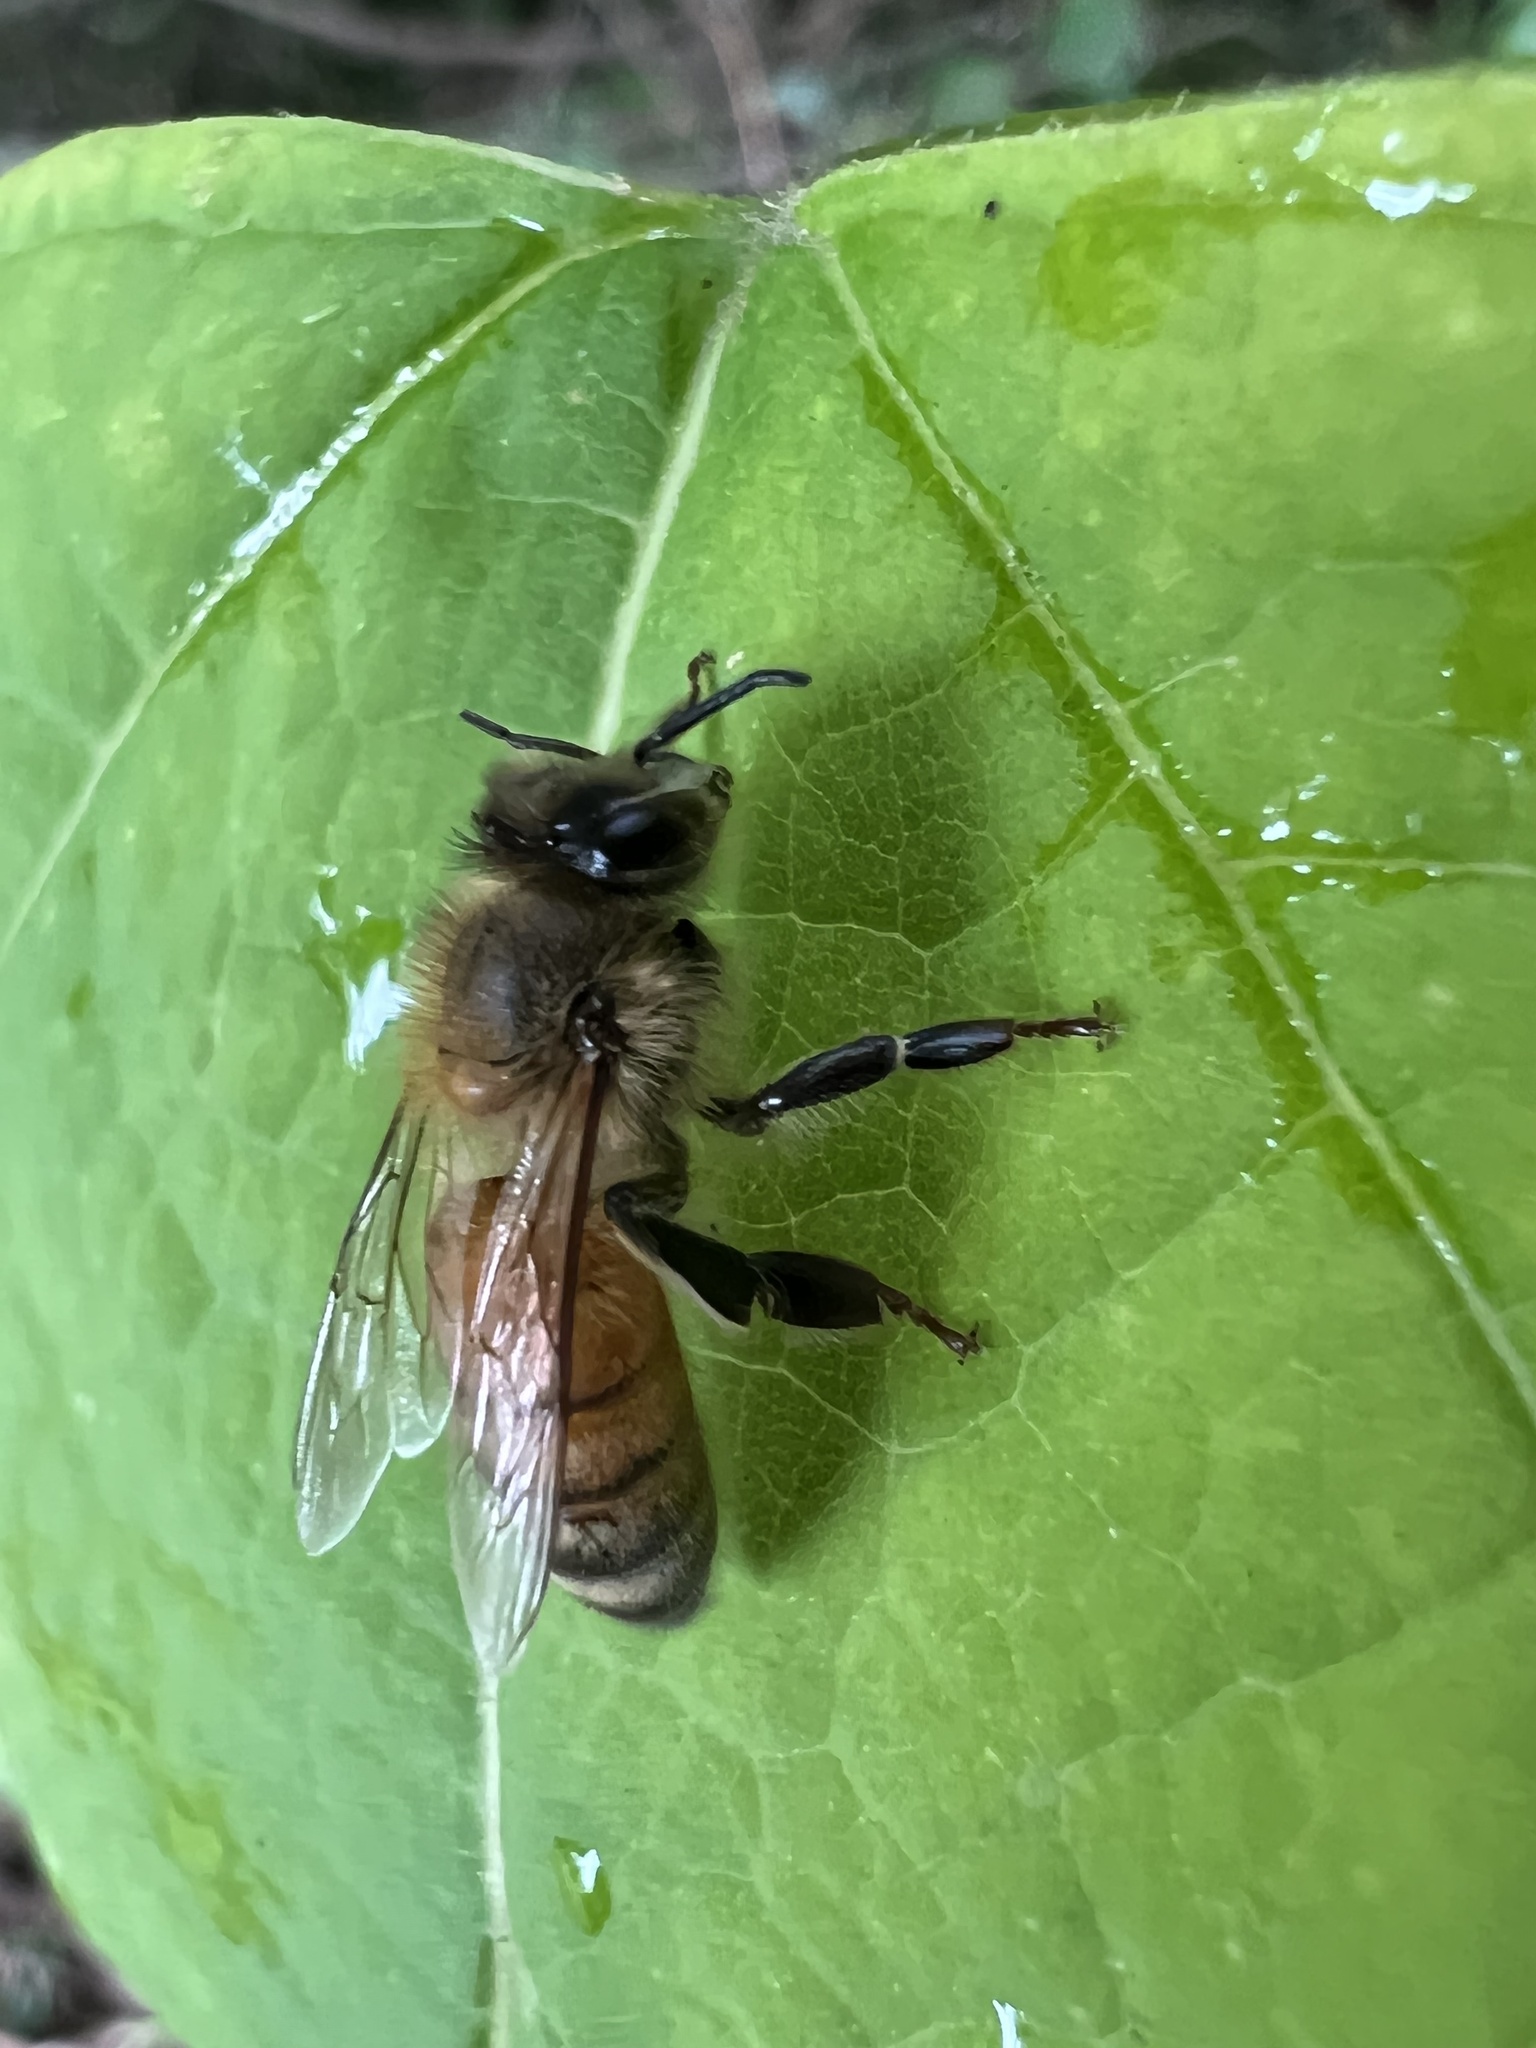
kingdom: Animalia
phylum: Arthropoda
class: Insecta
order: Hymenoptera
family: Apidae
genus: Apis
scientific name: Apis mellifera
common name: Honey bee
